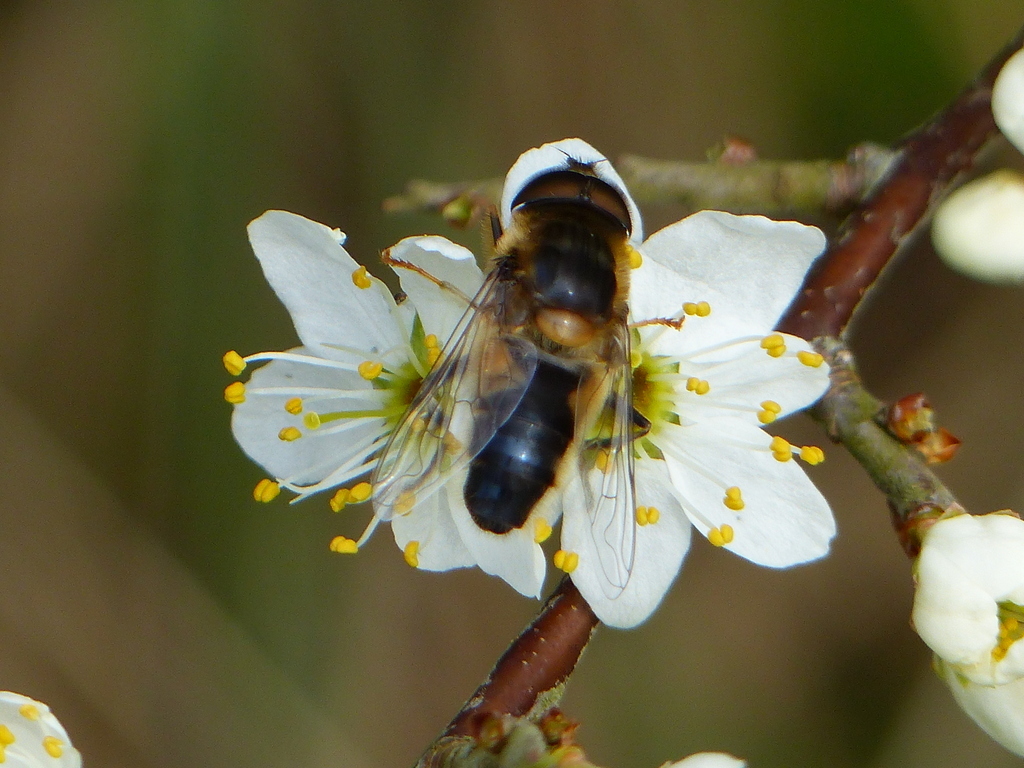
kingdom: Animalia
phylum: Arthropoda
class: Insecta
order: Diptera
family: Syrphidae
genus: Eristalis
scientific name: Eristalis pertinax
